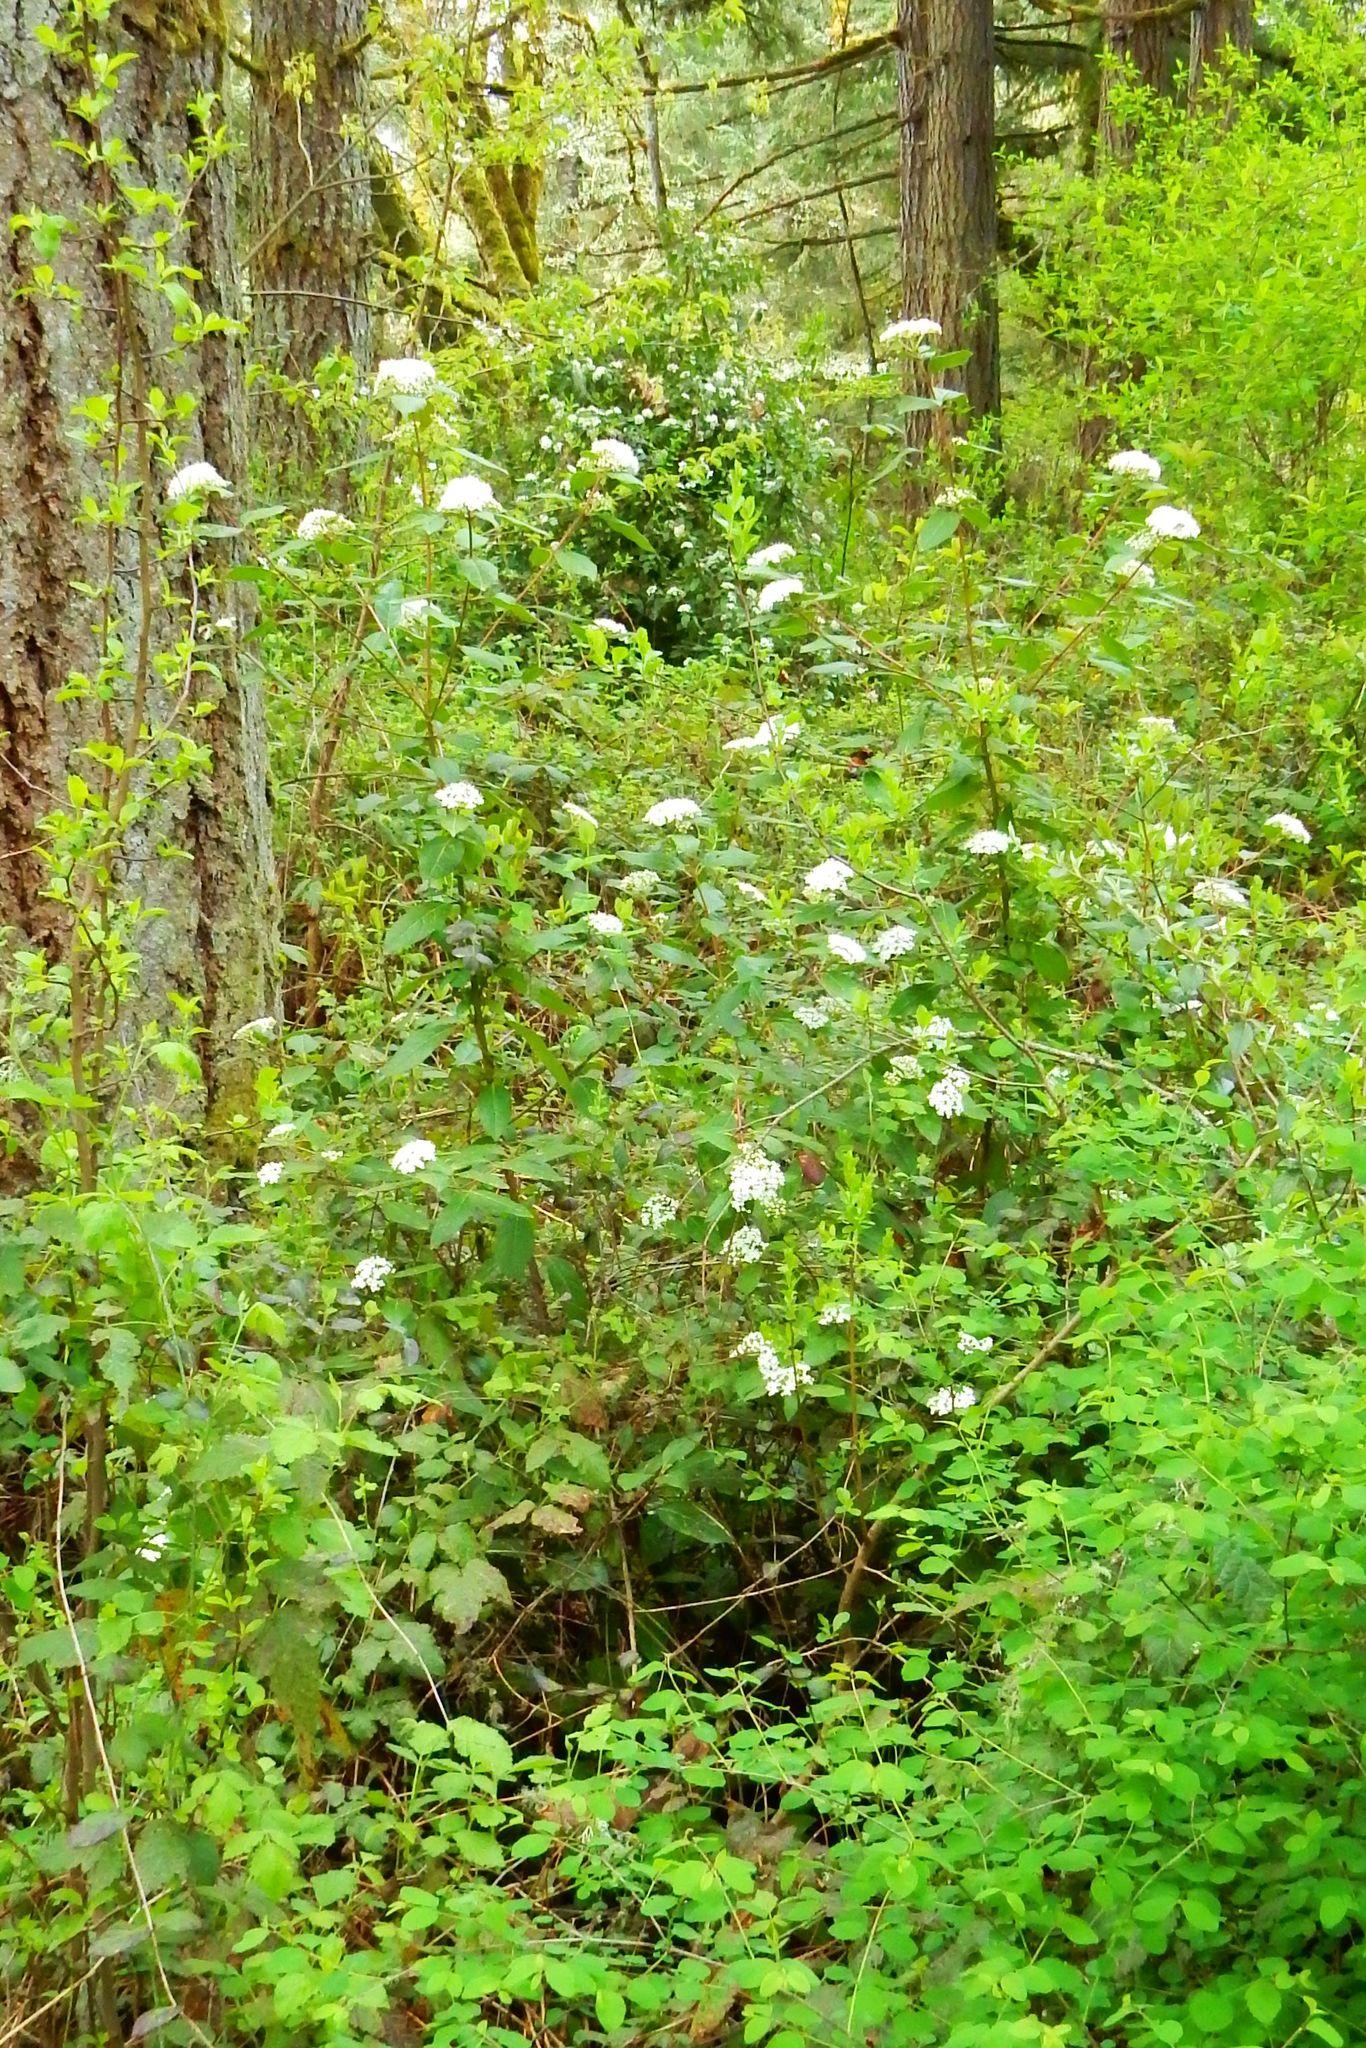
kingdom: Plantae
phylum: Tracheophyta
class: Magnoliopsida
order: Dipsacales
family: Viburnaceae
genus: Viburnum
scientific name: Viburnum tinus
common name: Laurustinus
